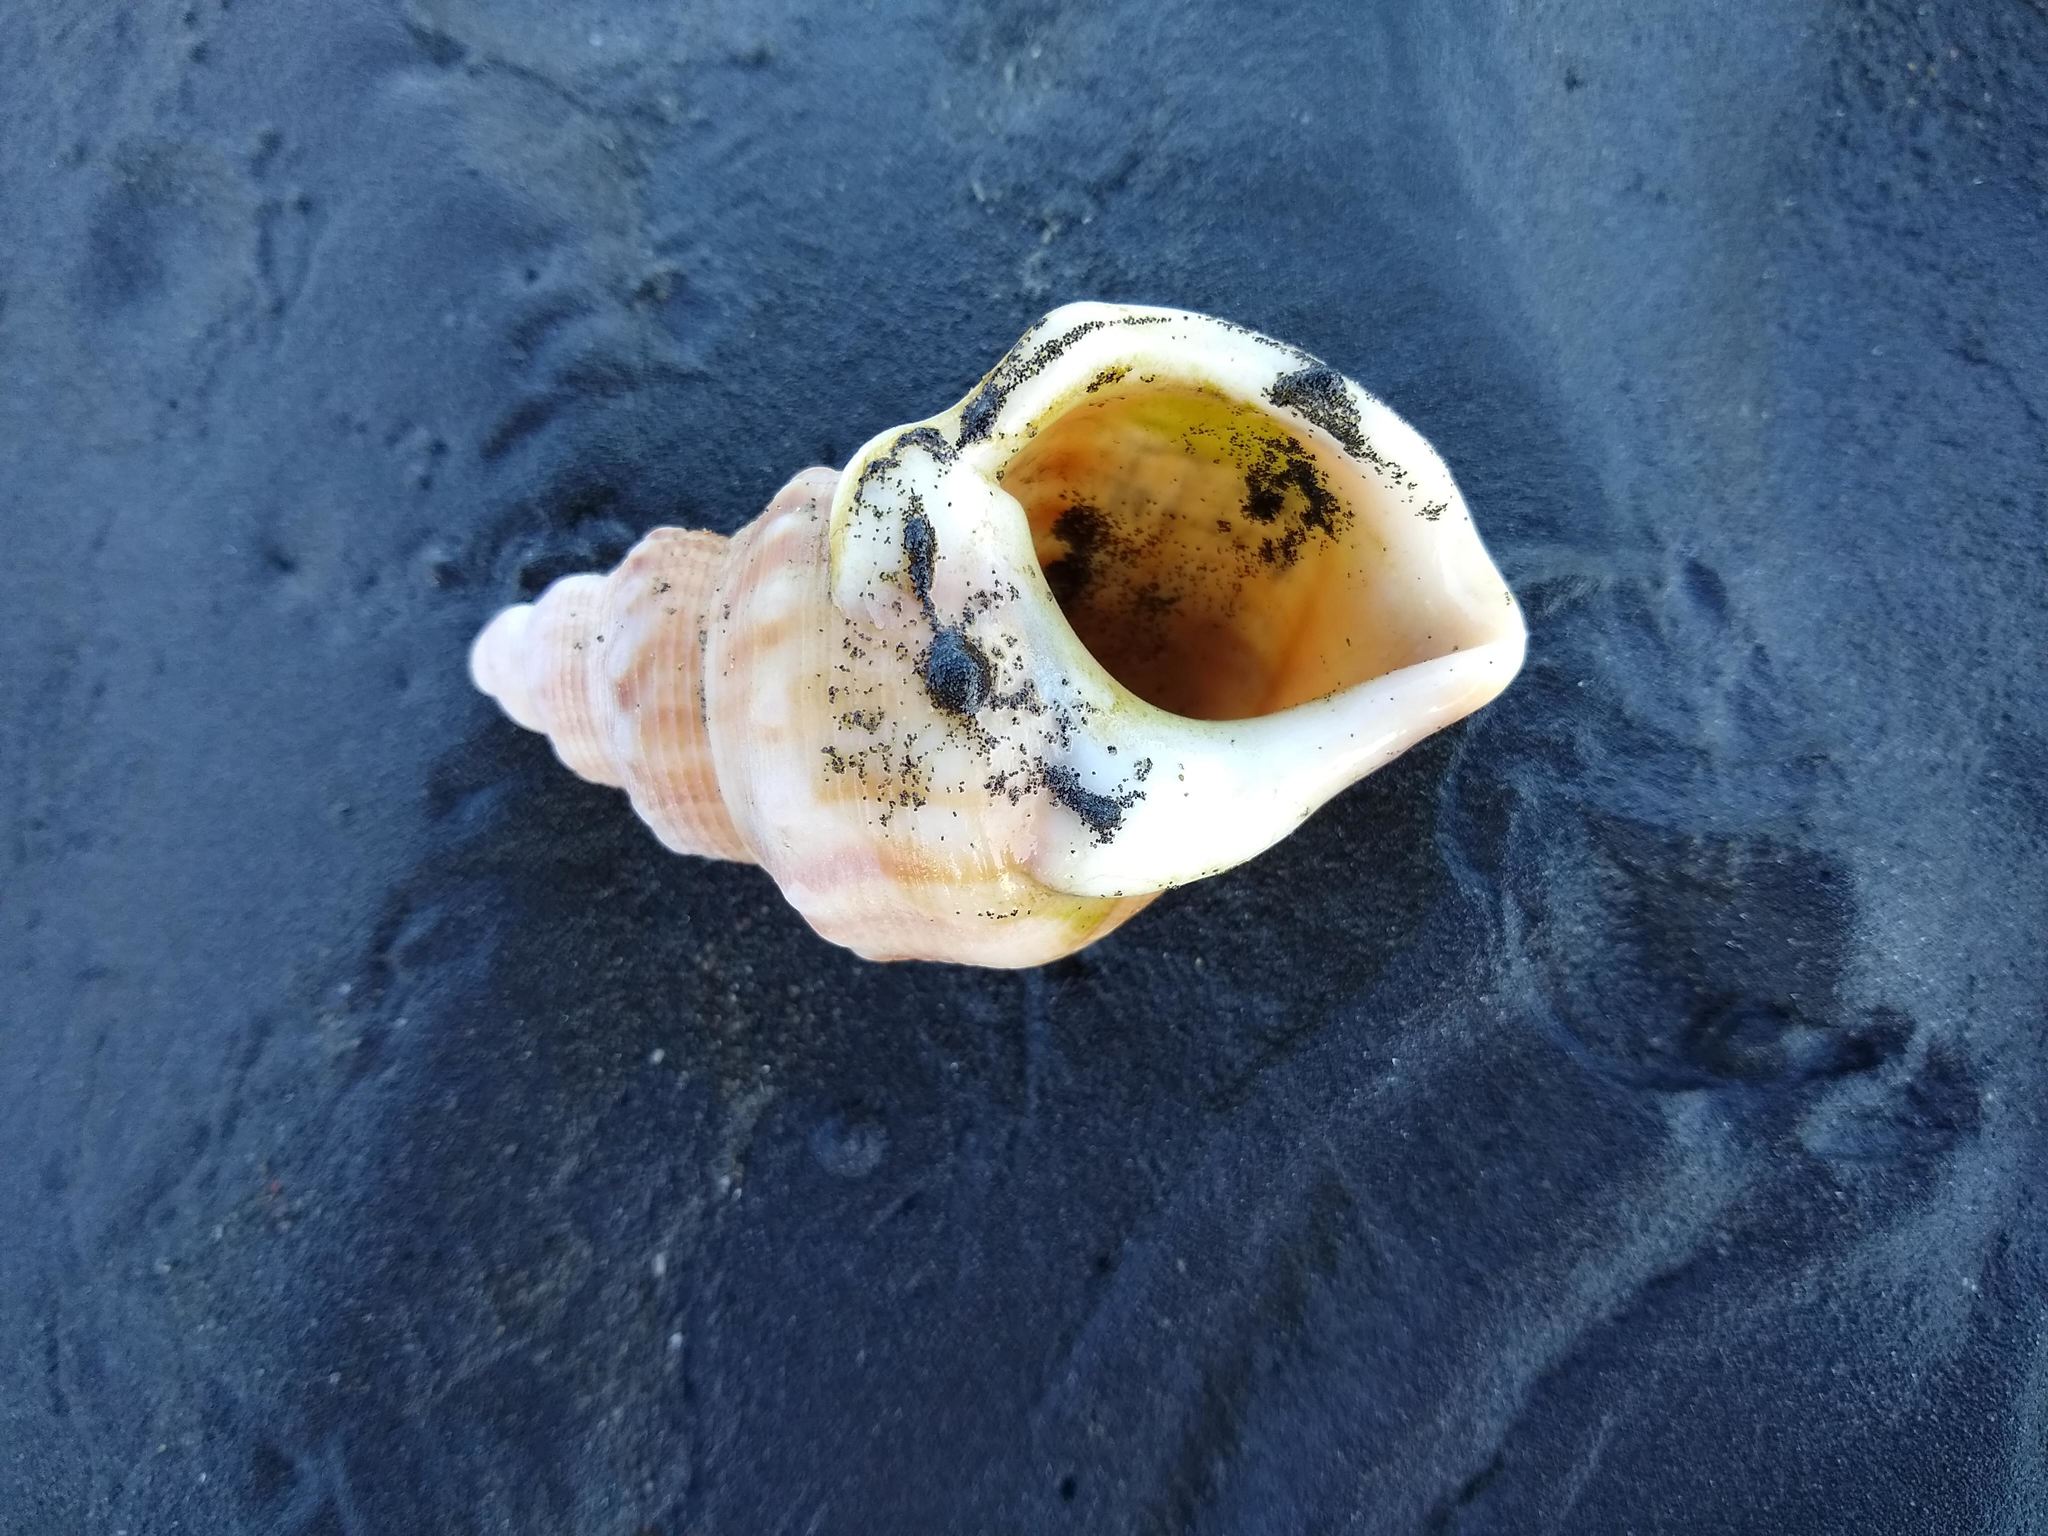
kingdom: Animalia
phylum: Mollusca
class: Gastropoda
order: Littorinimorpha
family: Struthiolariidae
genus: Struthiolaria
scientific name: Struthiolaria papulosa
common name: Large ostrich foot
